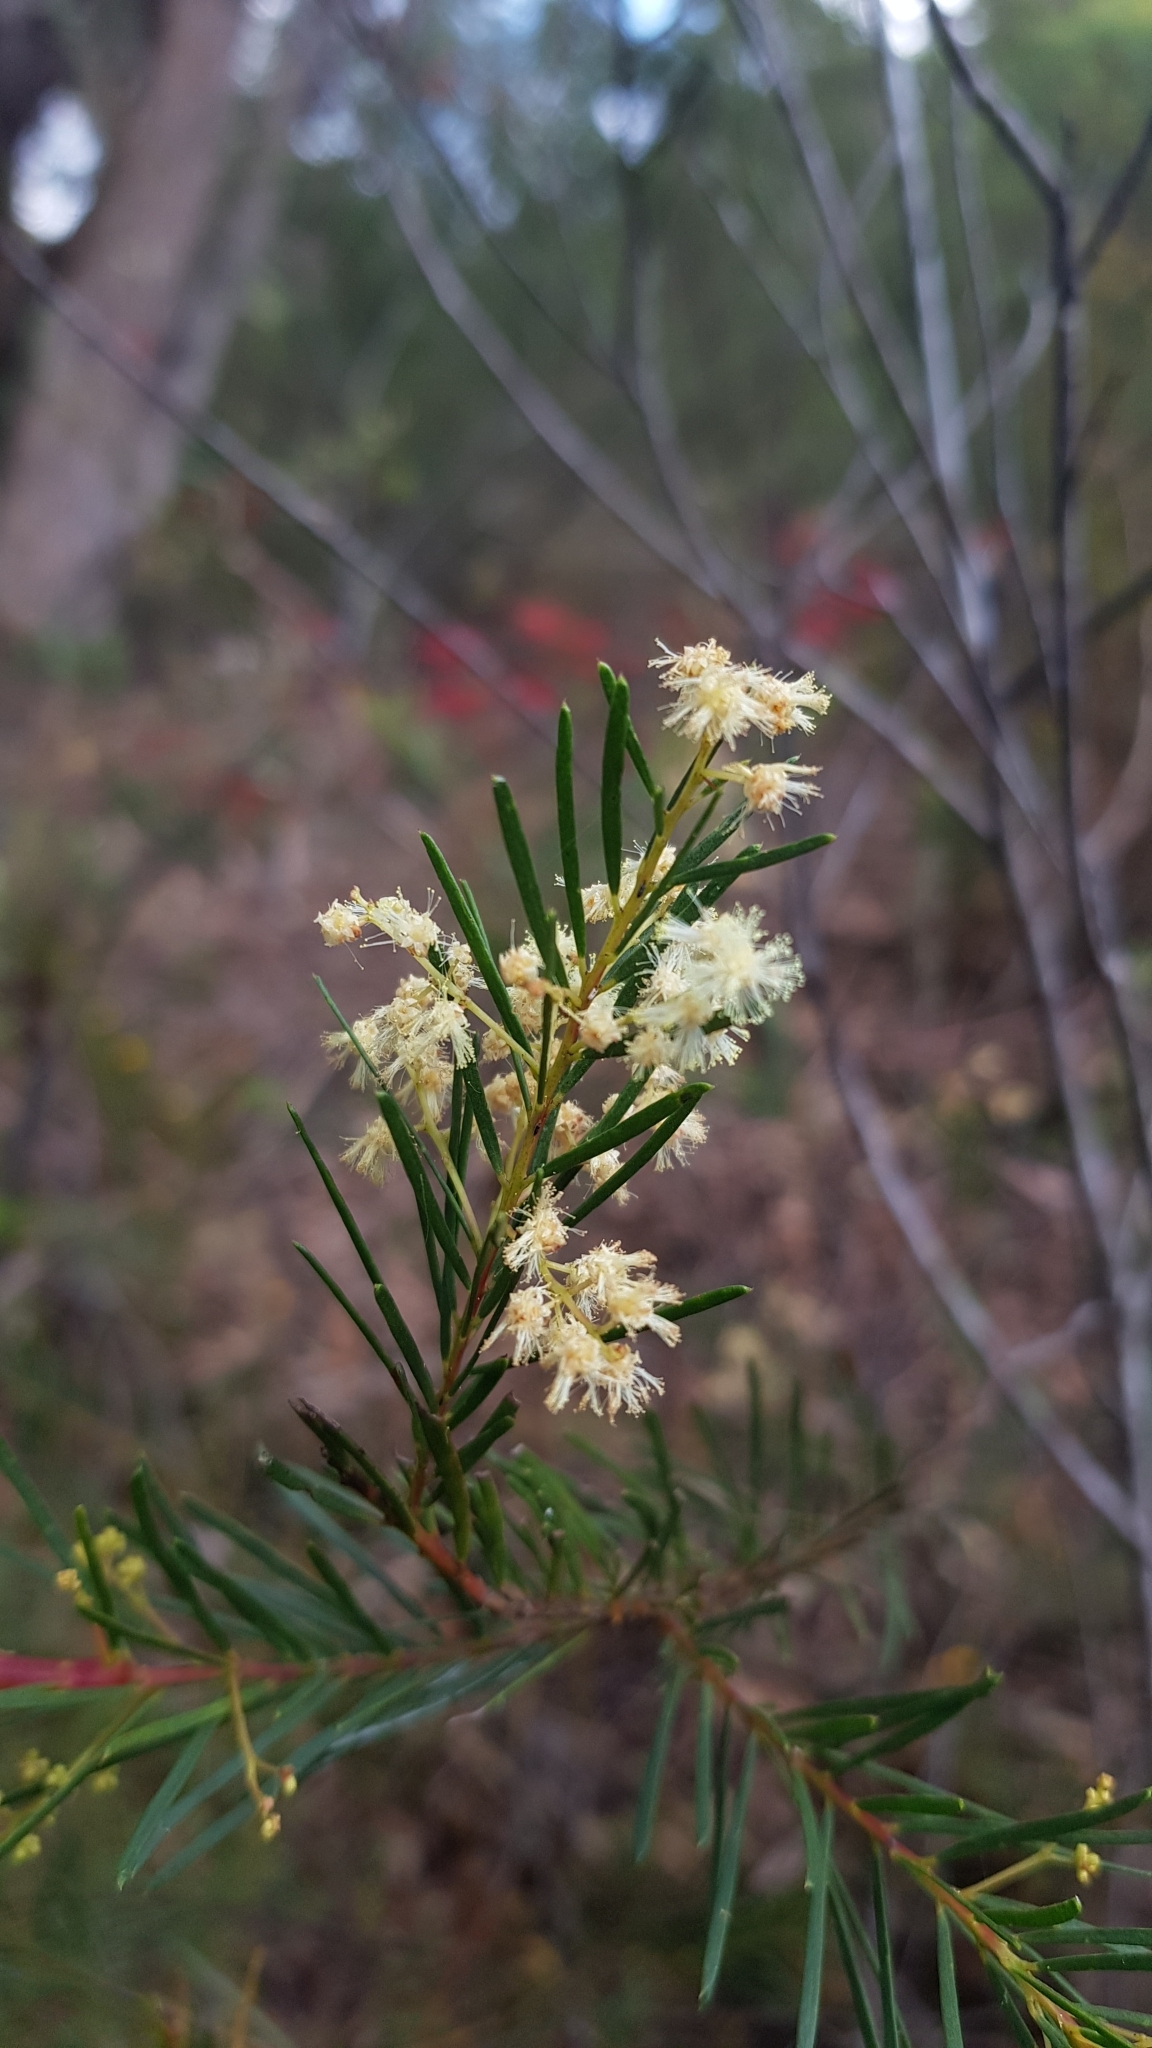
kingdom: Plantae
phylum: Tracheophyta
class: Magnoliopsida
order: Fabales
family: Fabaceae
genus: Acacia
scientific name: Acacia linifolia
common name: White wattle
